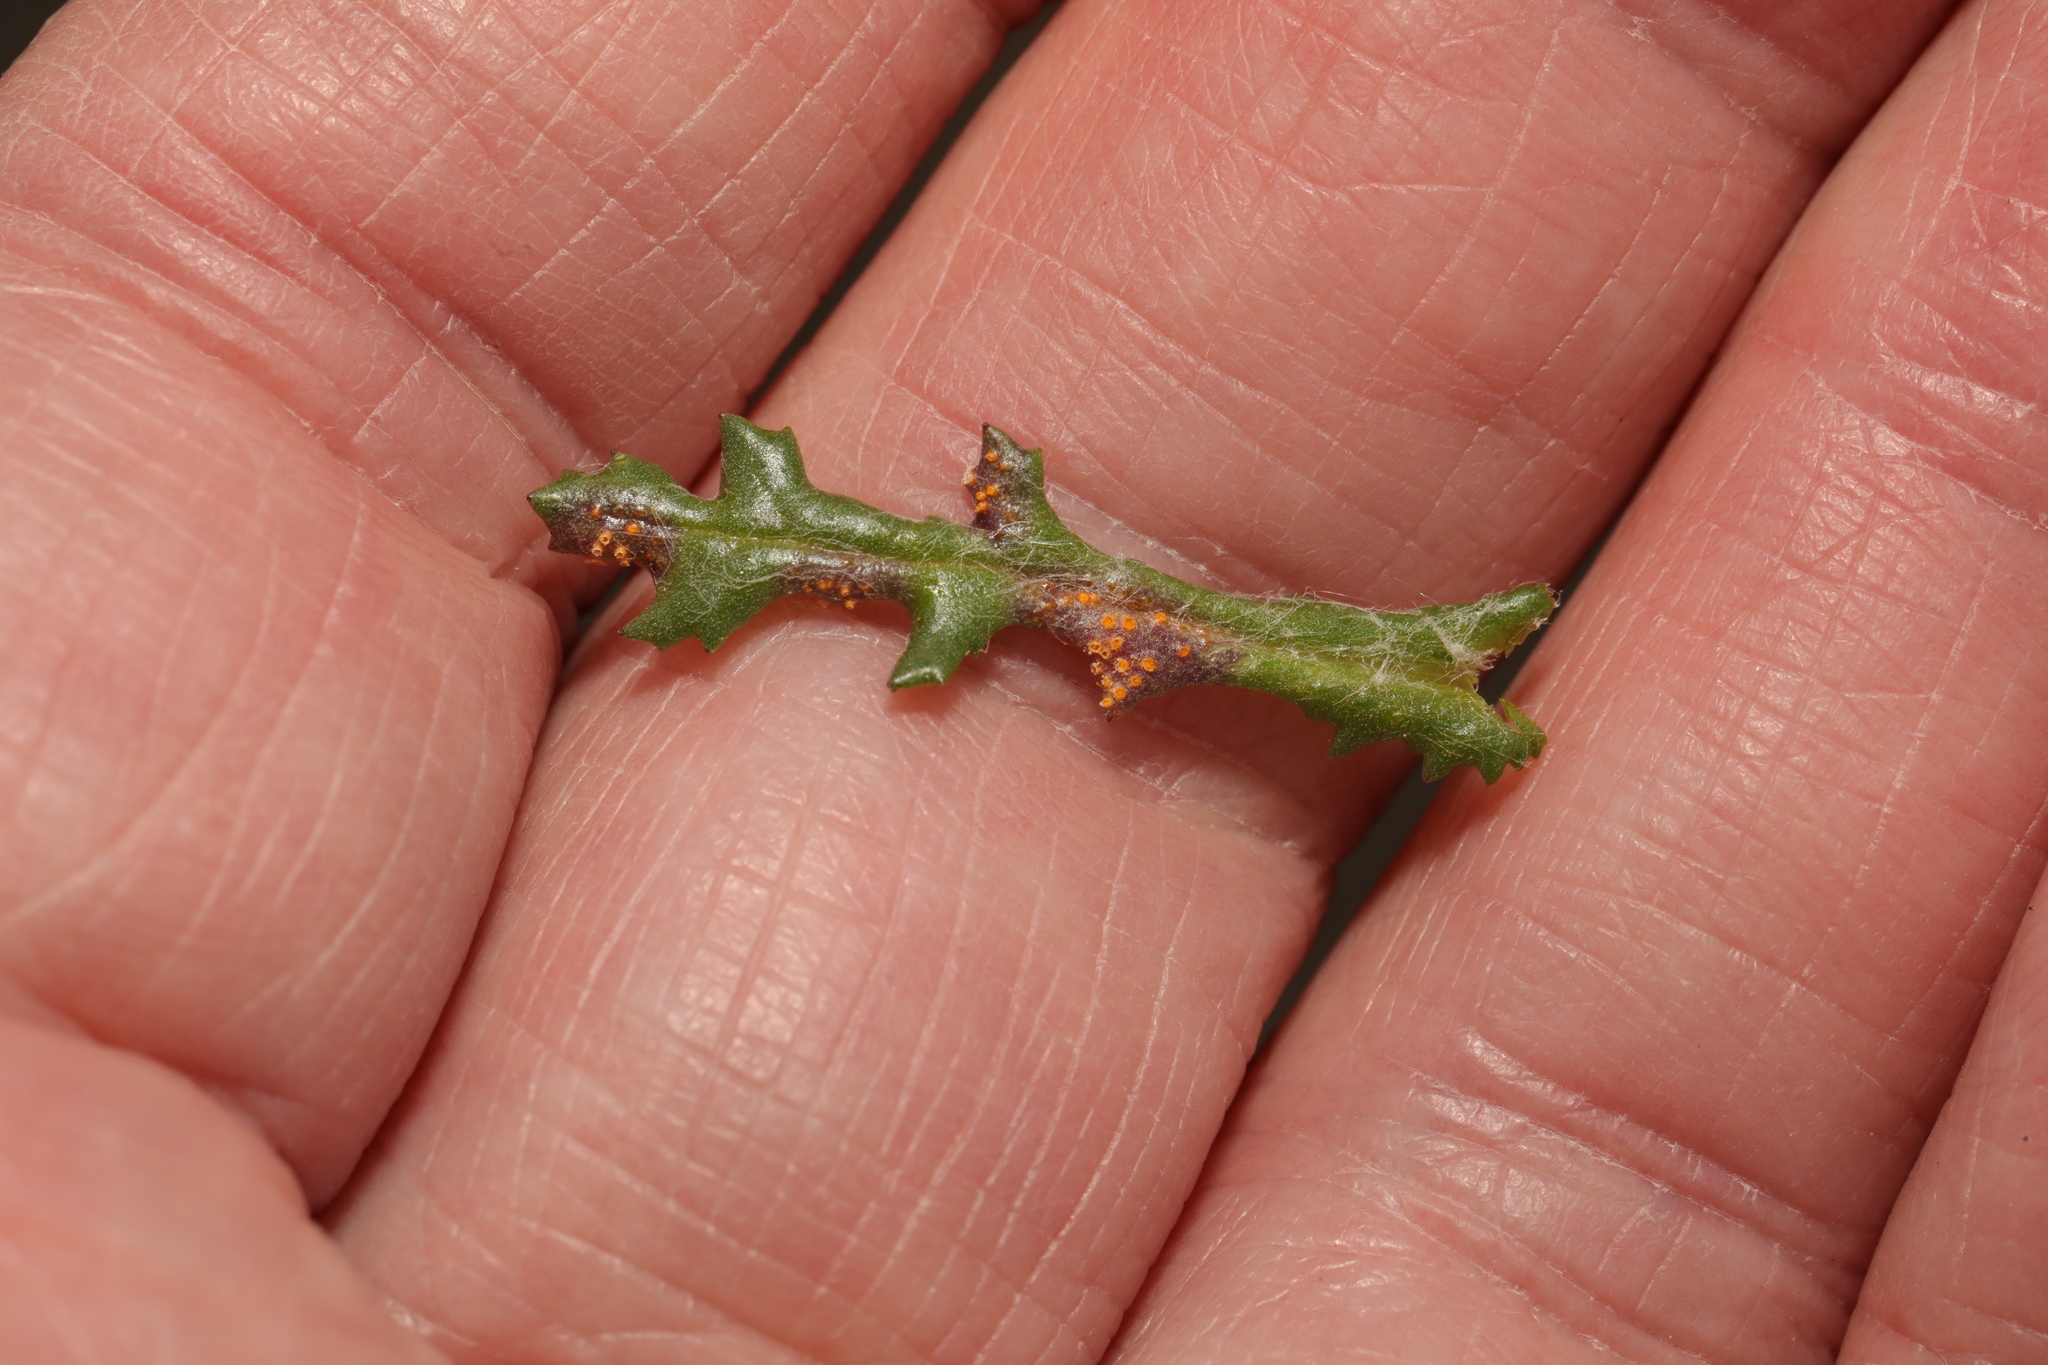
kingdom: Fungi
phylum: Basidiomycota
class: Pucciniomycetes
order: Pucciniales
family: Pucciniaceae
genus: Puccinia
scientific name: Puccinia lagenophorae
